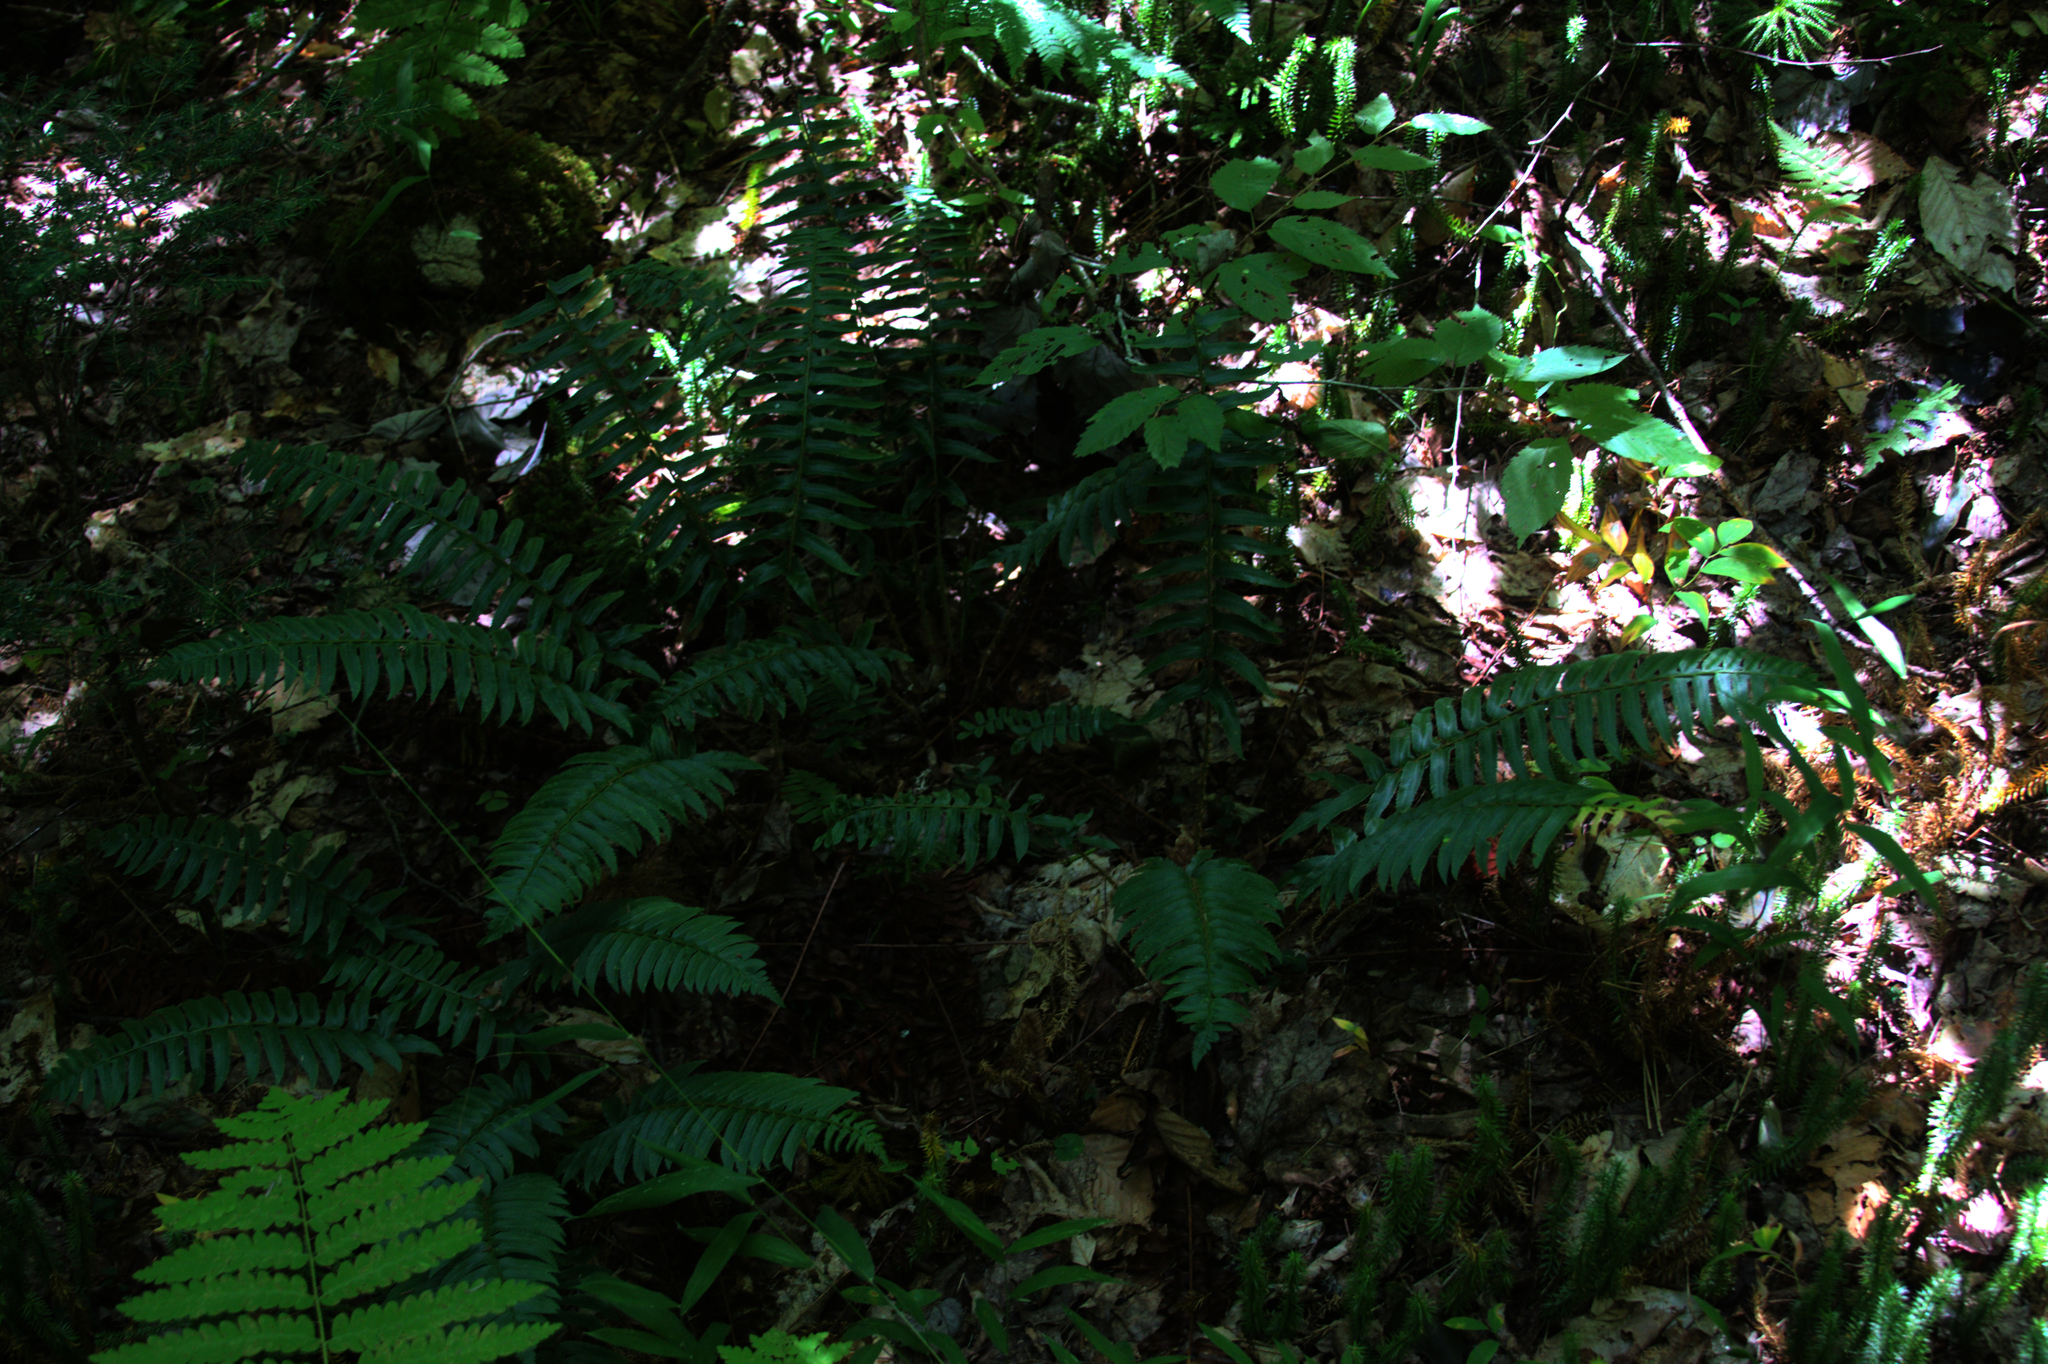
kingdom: Plantae
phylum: Tracheophyta
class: Polypodiopsida
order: Polypodiales
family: Dryopteridaceae
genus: Polystichum
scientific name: Polystichum acrostichoides
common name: Christmas fern
